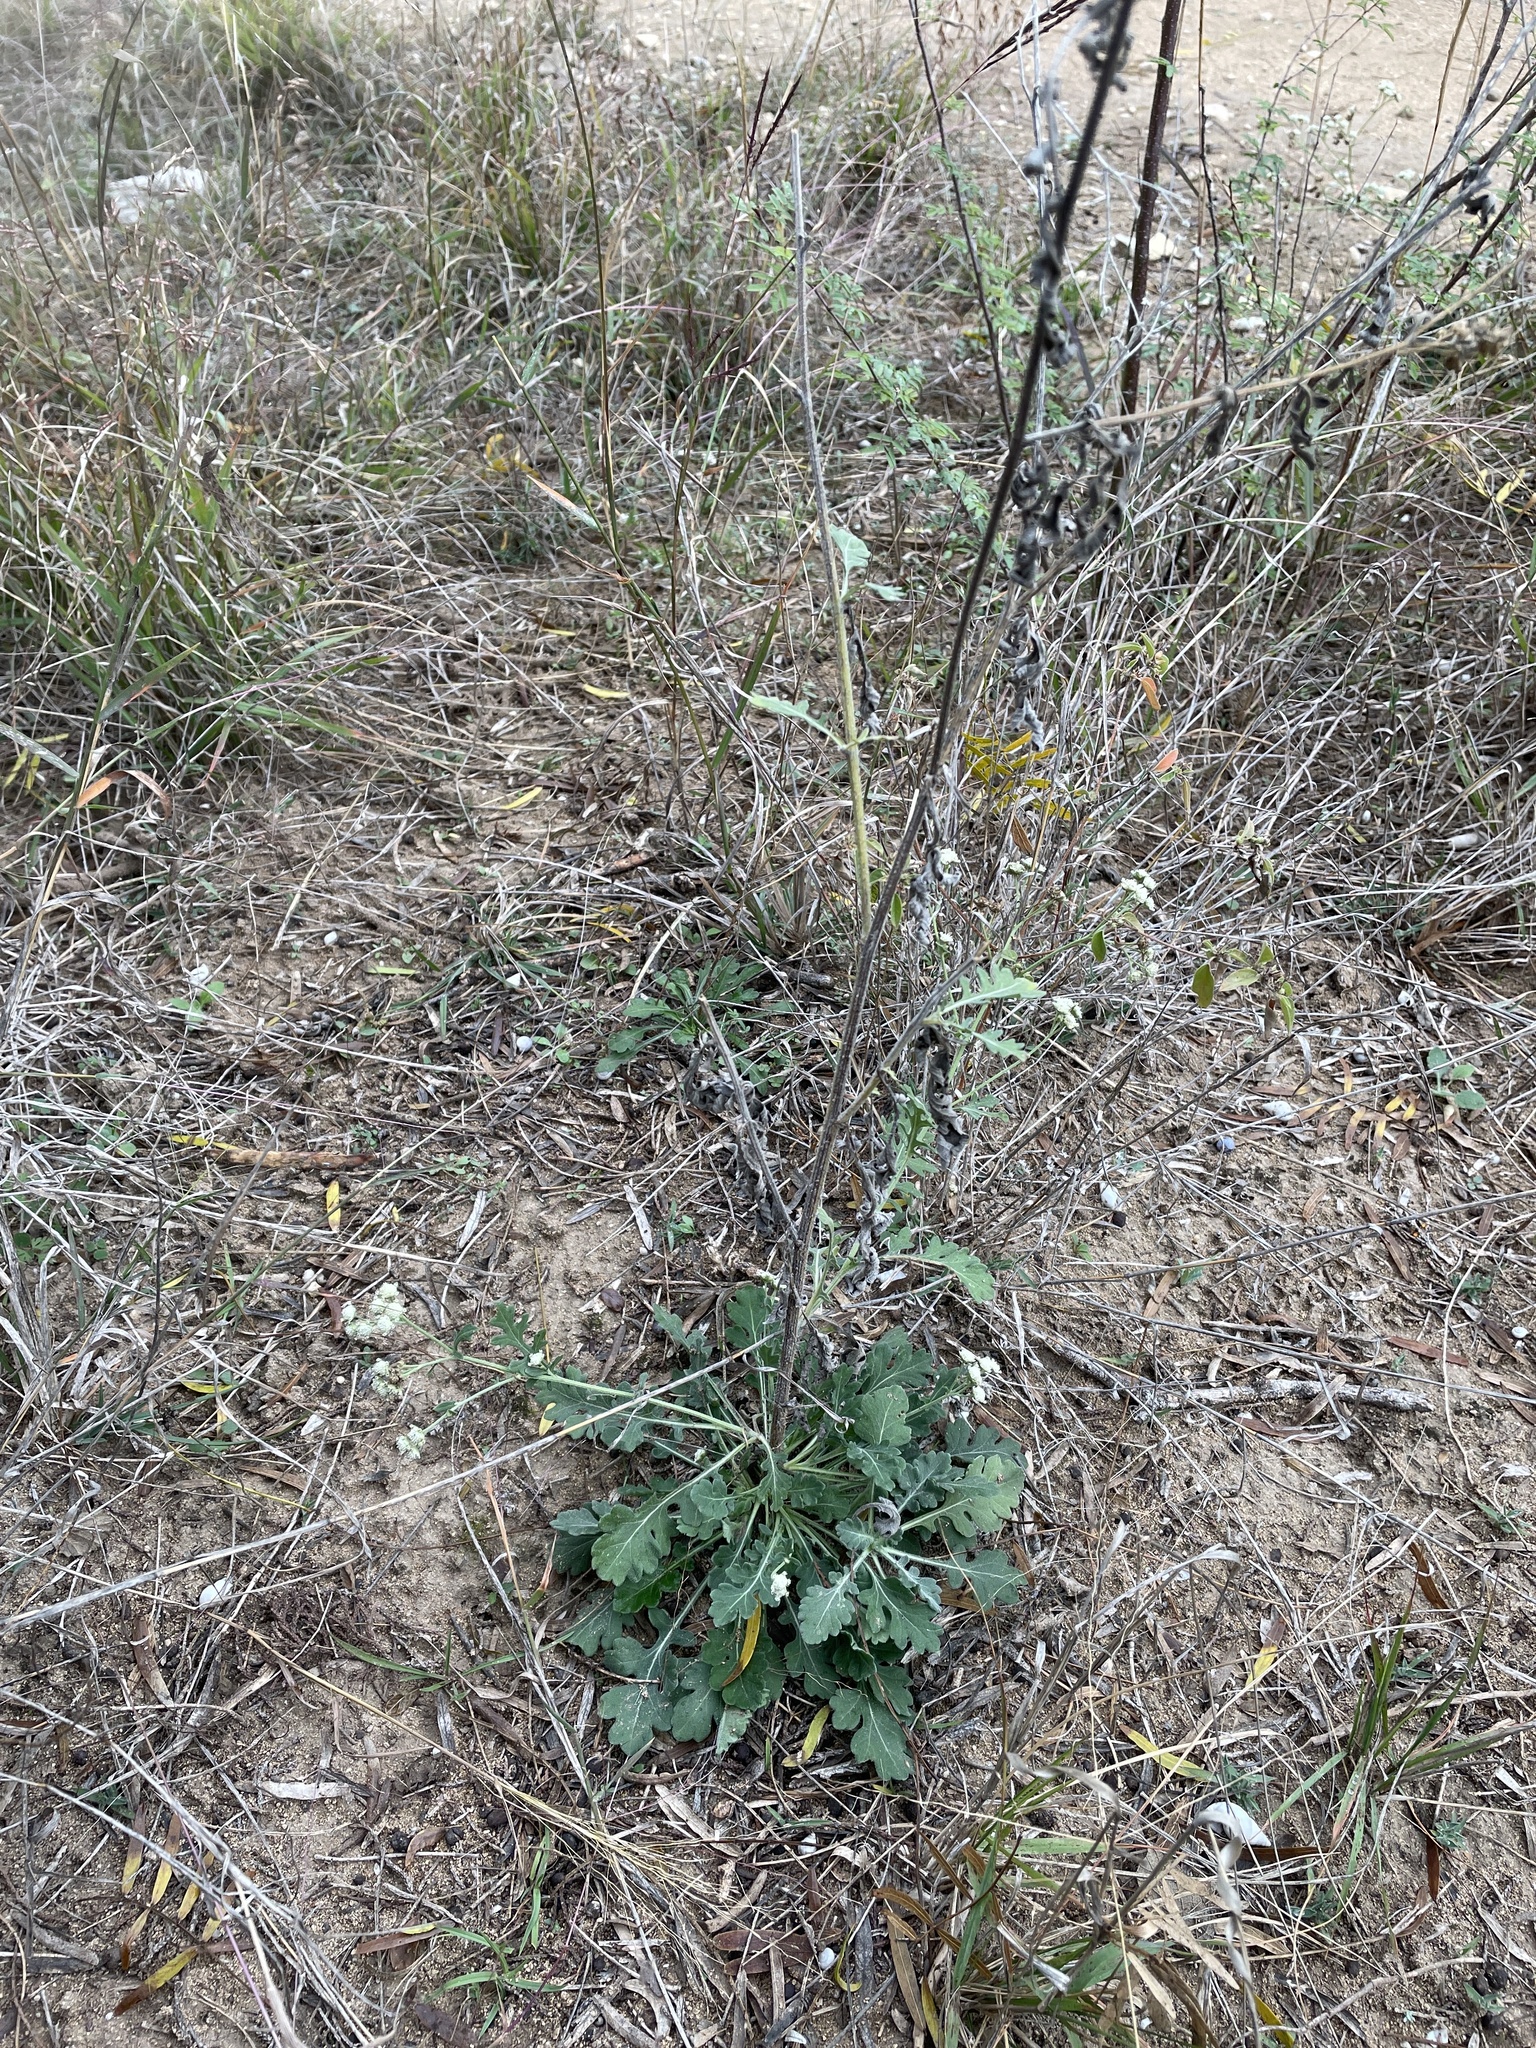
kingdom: Plantae
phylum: Tracheophyta
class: Magnoliopsida
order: Asterales
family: Asteraceae
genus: Parthenium
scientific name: Parthenium confertum
